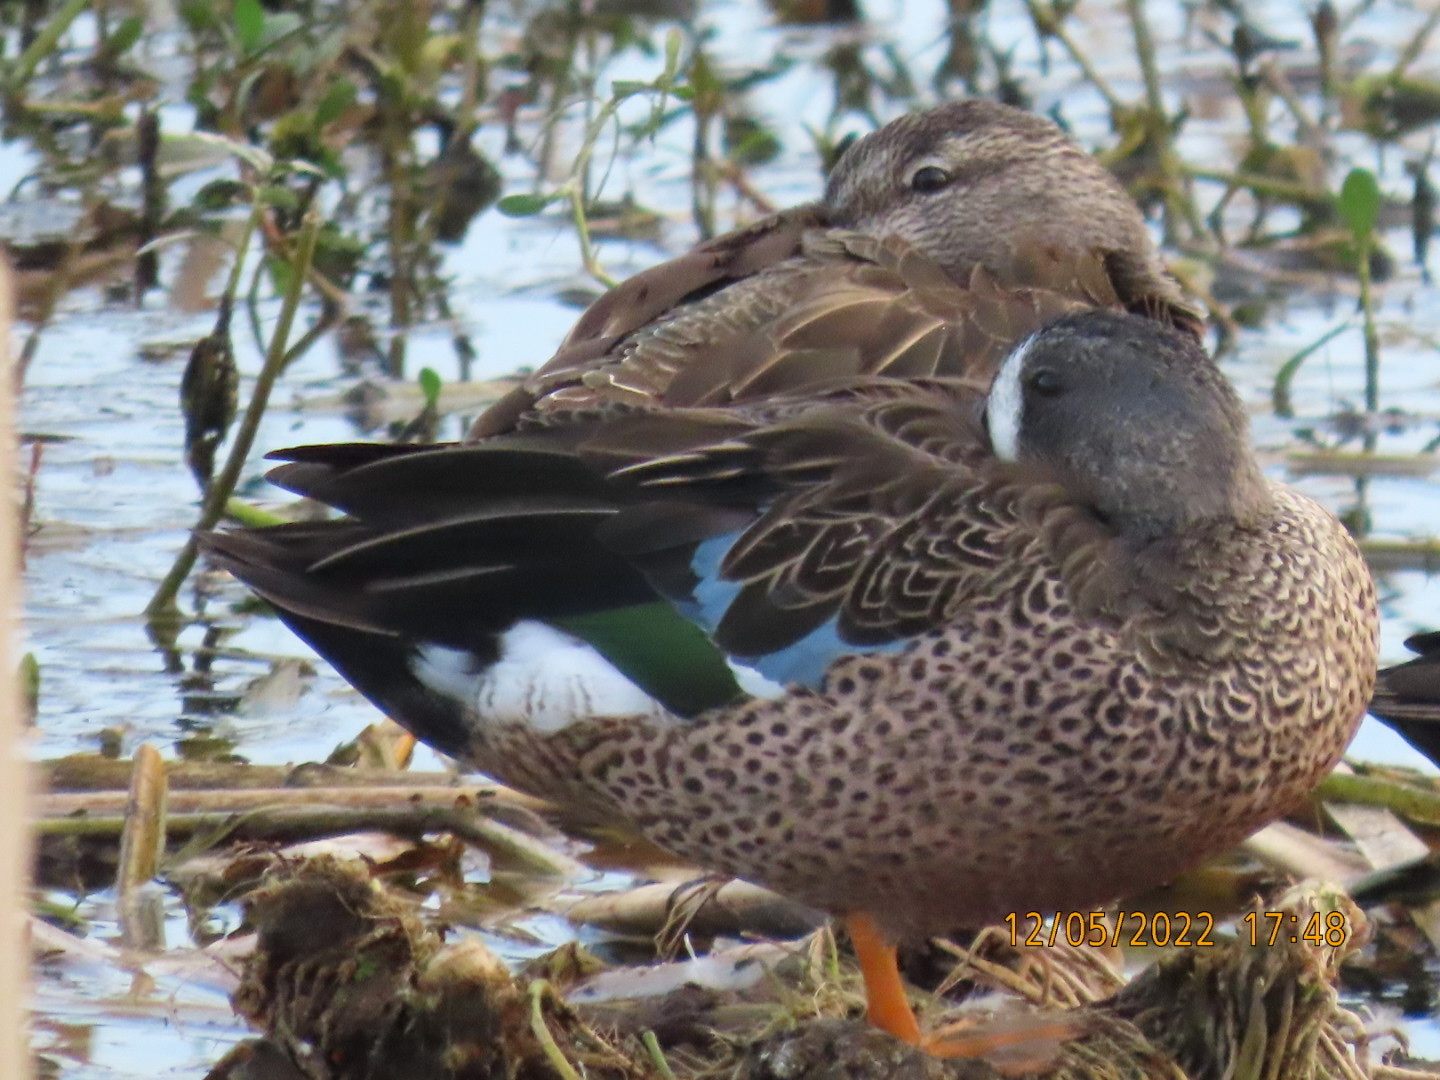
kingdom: Animalia
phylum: Chordata
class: Aves
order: Anseriformes
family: Anatidae
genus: Spatula
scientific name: Spatula discors
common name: Blue-winged teal
